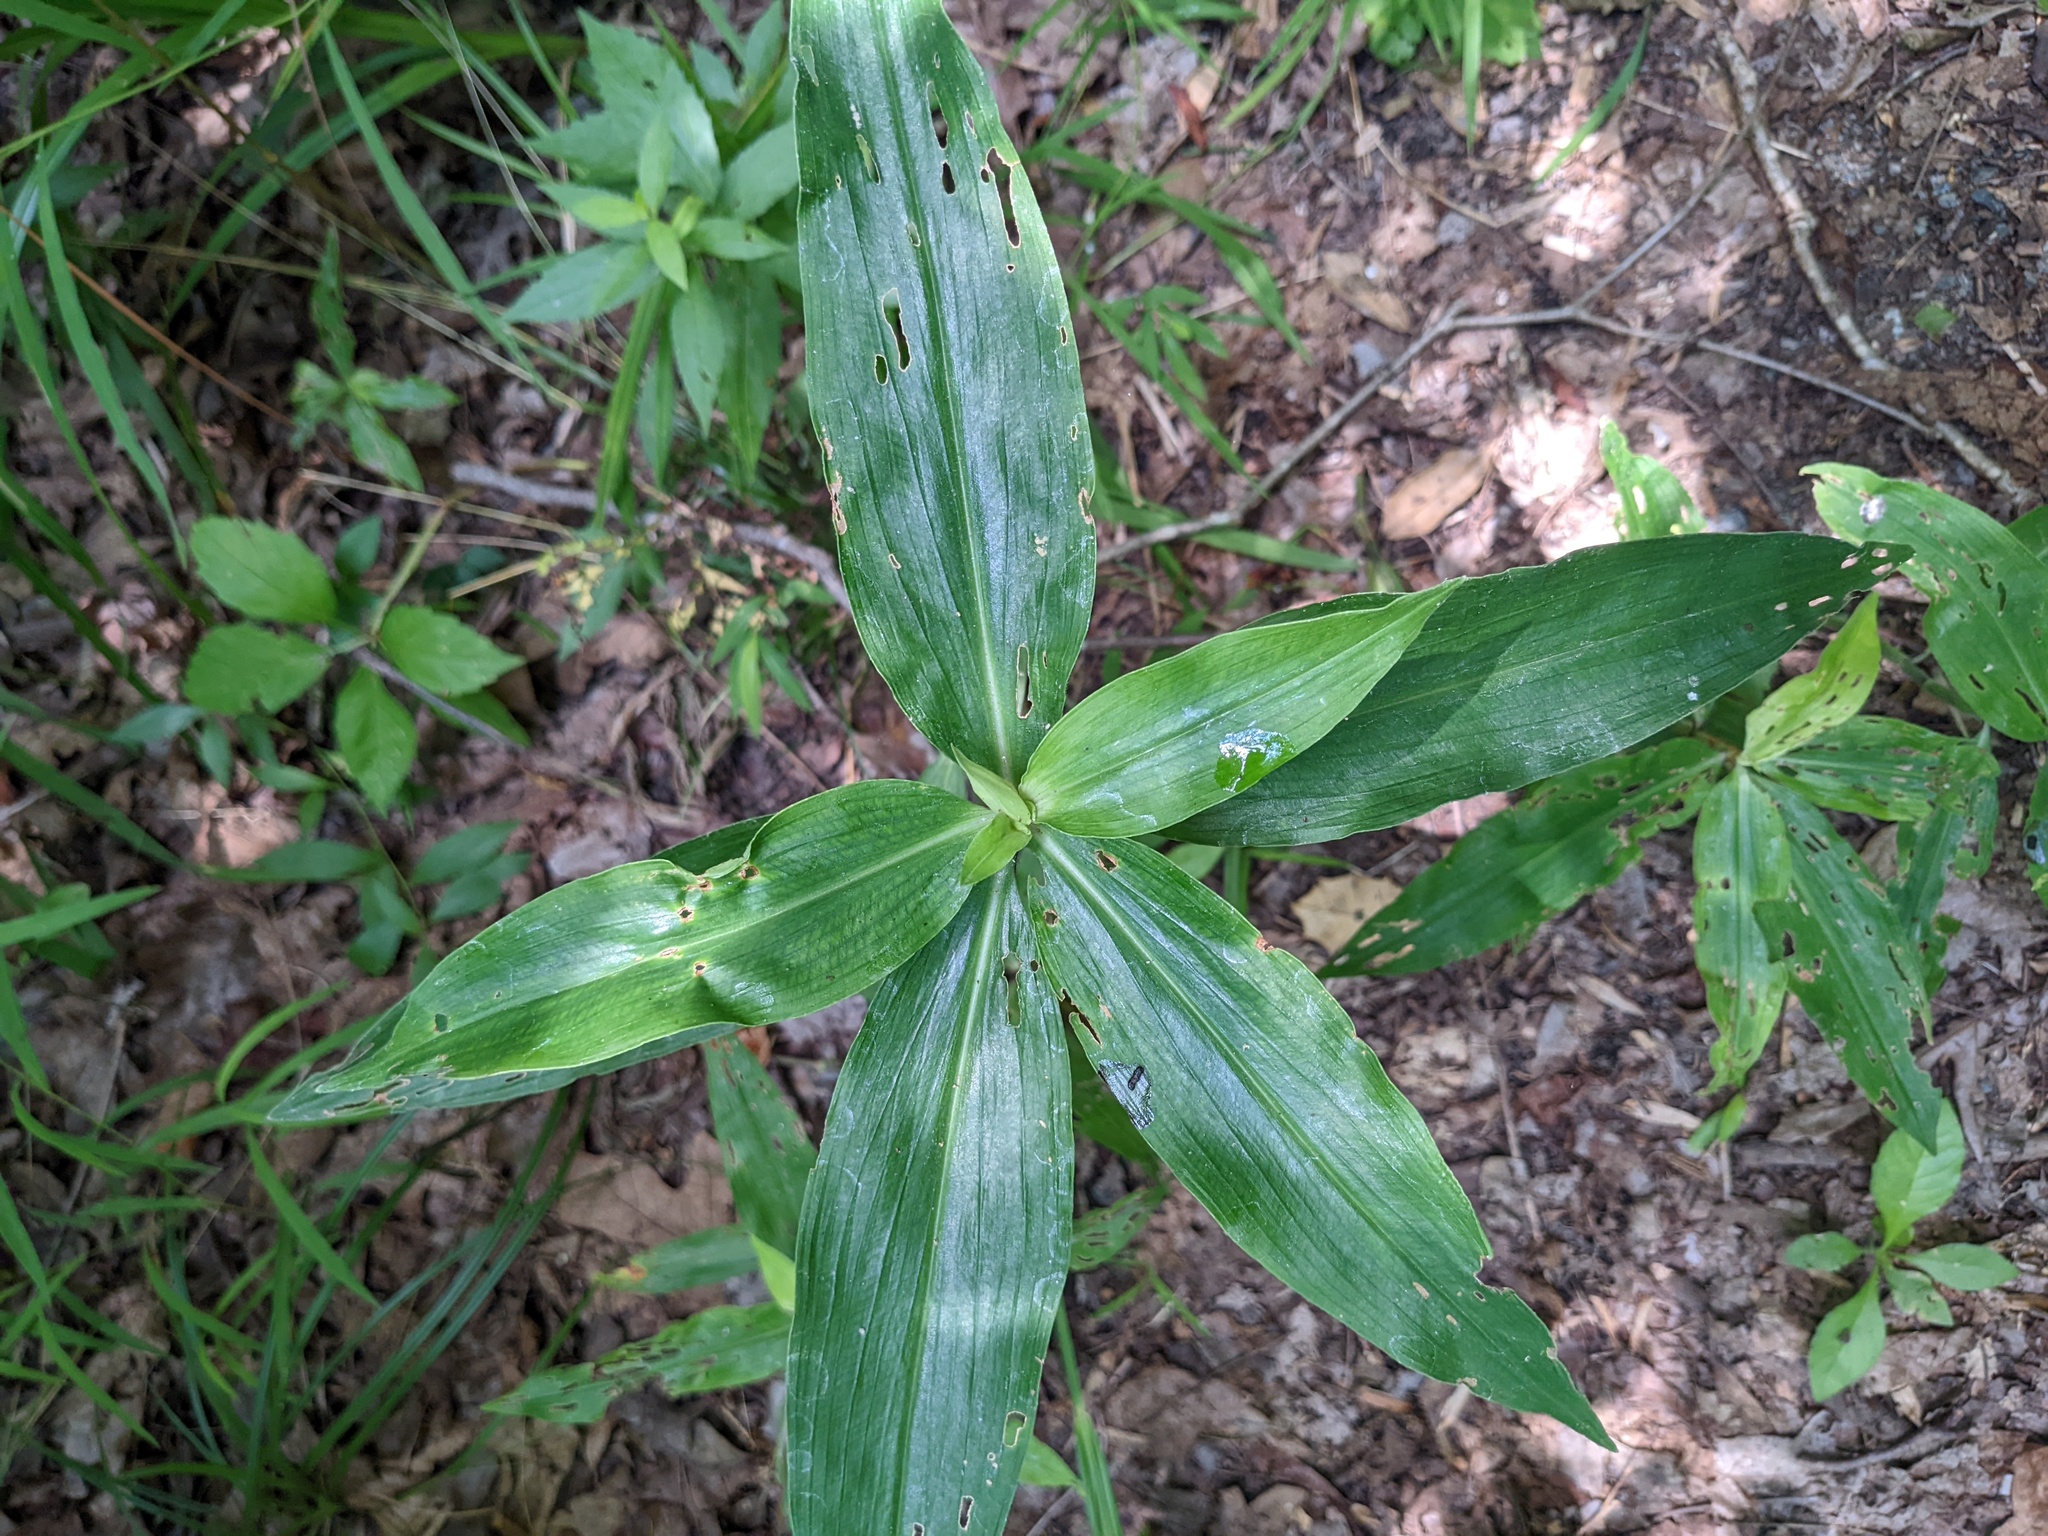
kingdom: Plantae
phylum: Tracheophyta
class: Liliopsida
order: Commelinales
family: Commelinaceae
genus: Commelina
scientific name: Commelina virginica
